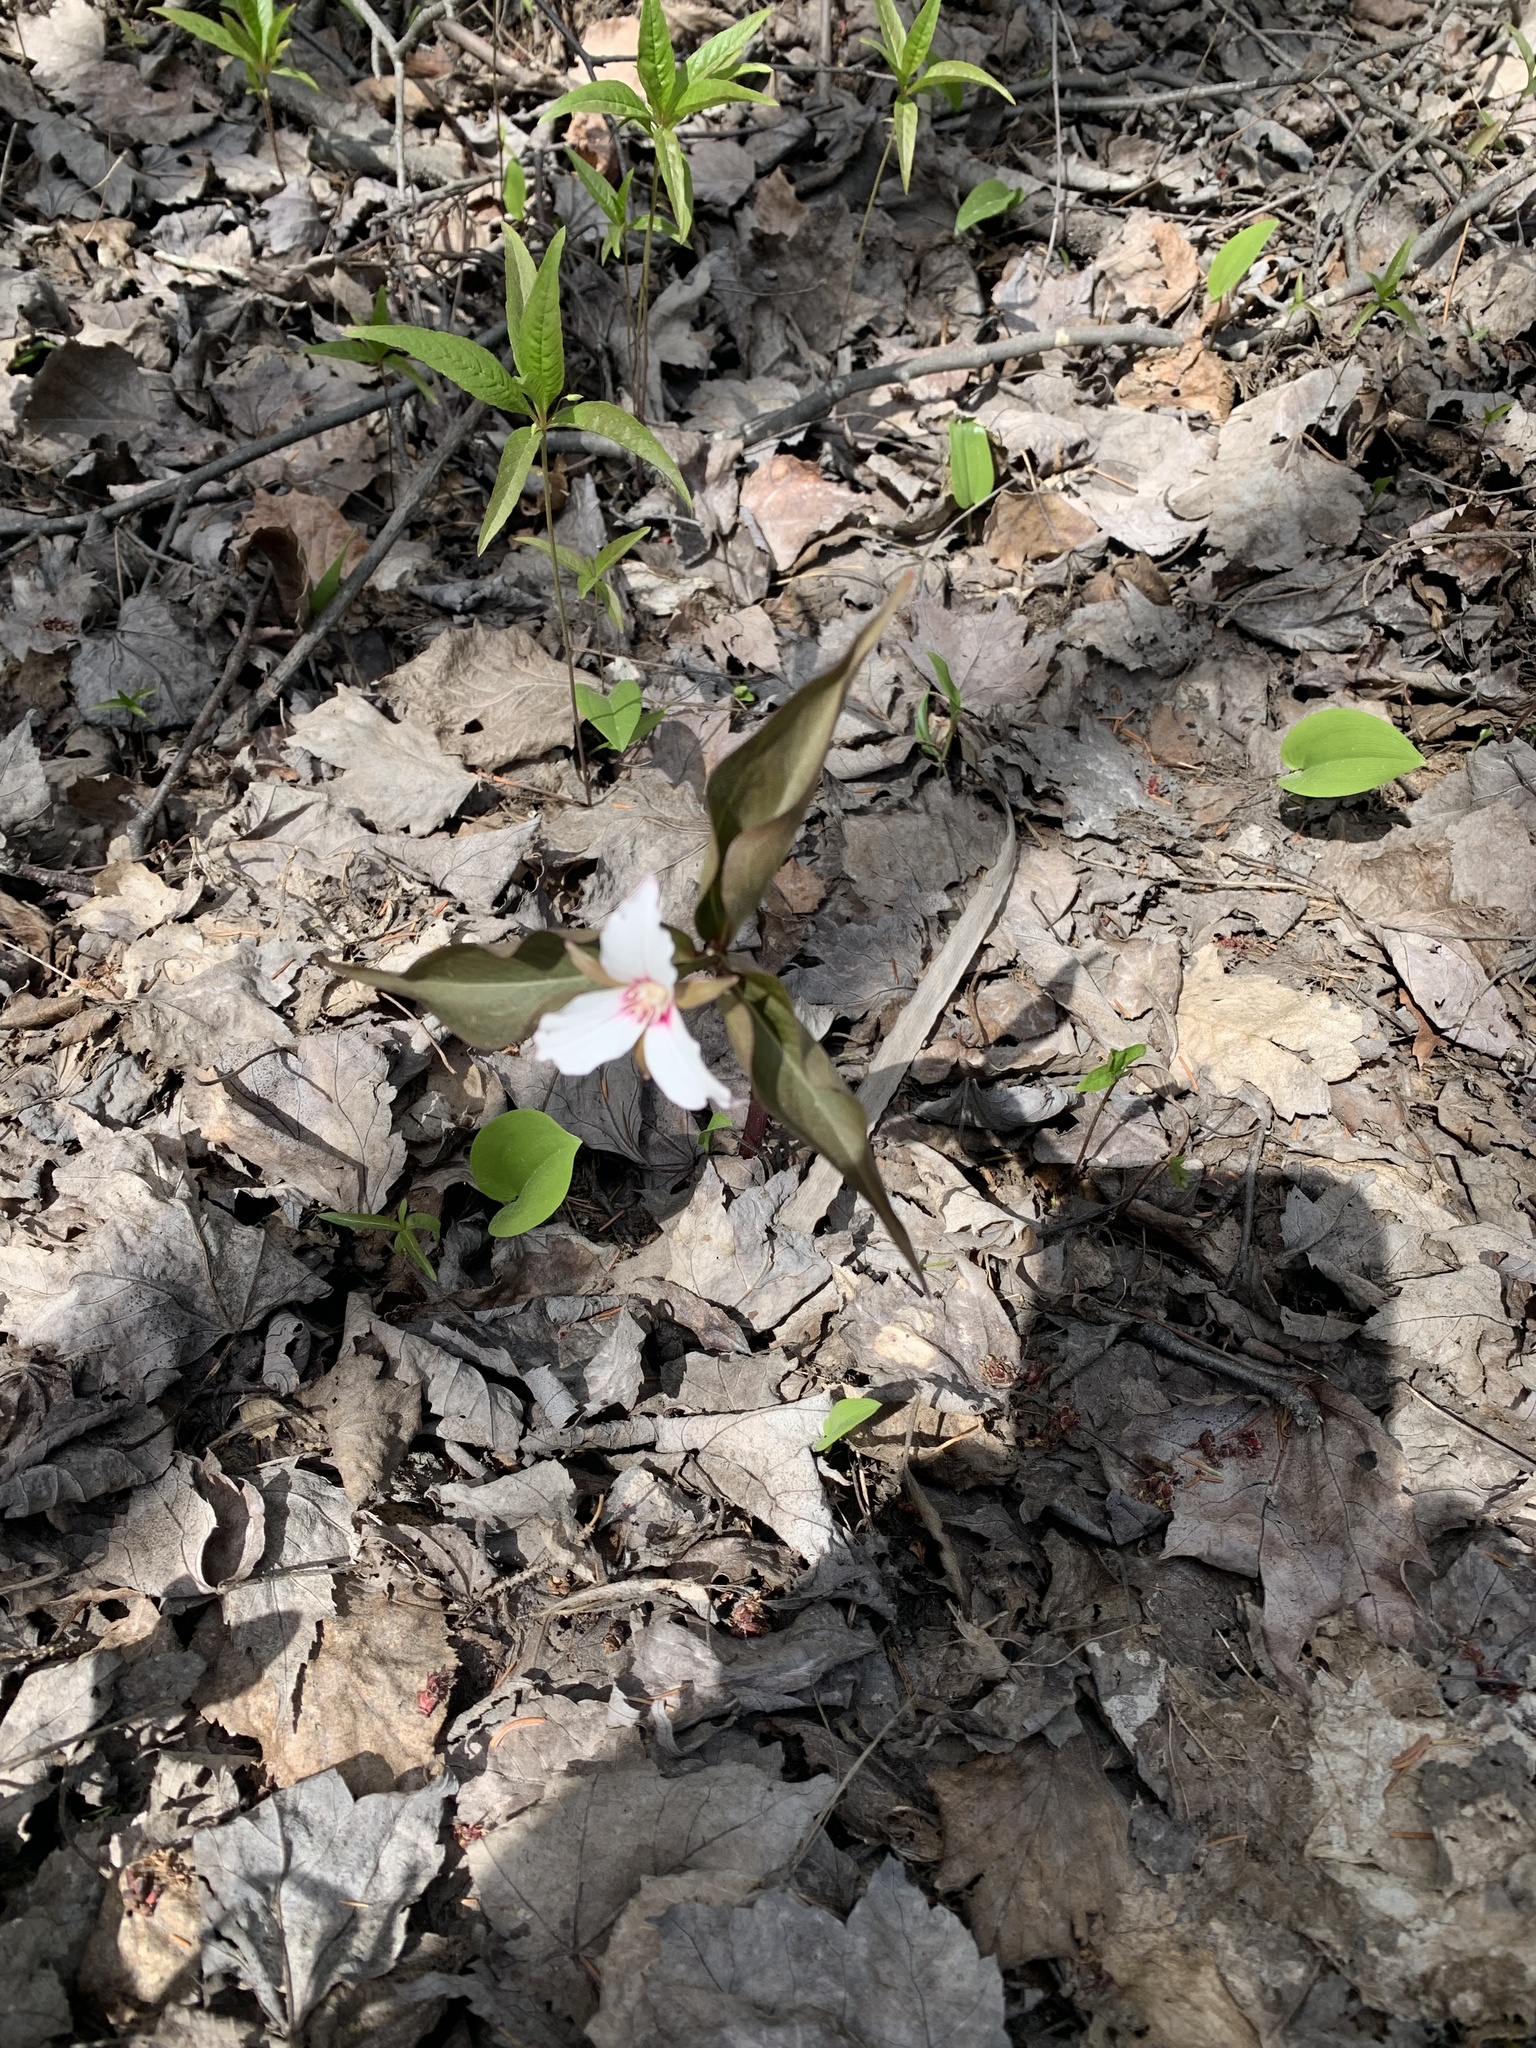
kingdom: Plantae
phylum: Tracheophyta
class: Liliopsida
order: Liliales
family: Melanthiaceae
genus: Trillium
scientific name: Trillium undulatum
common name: Paint trillium
